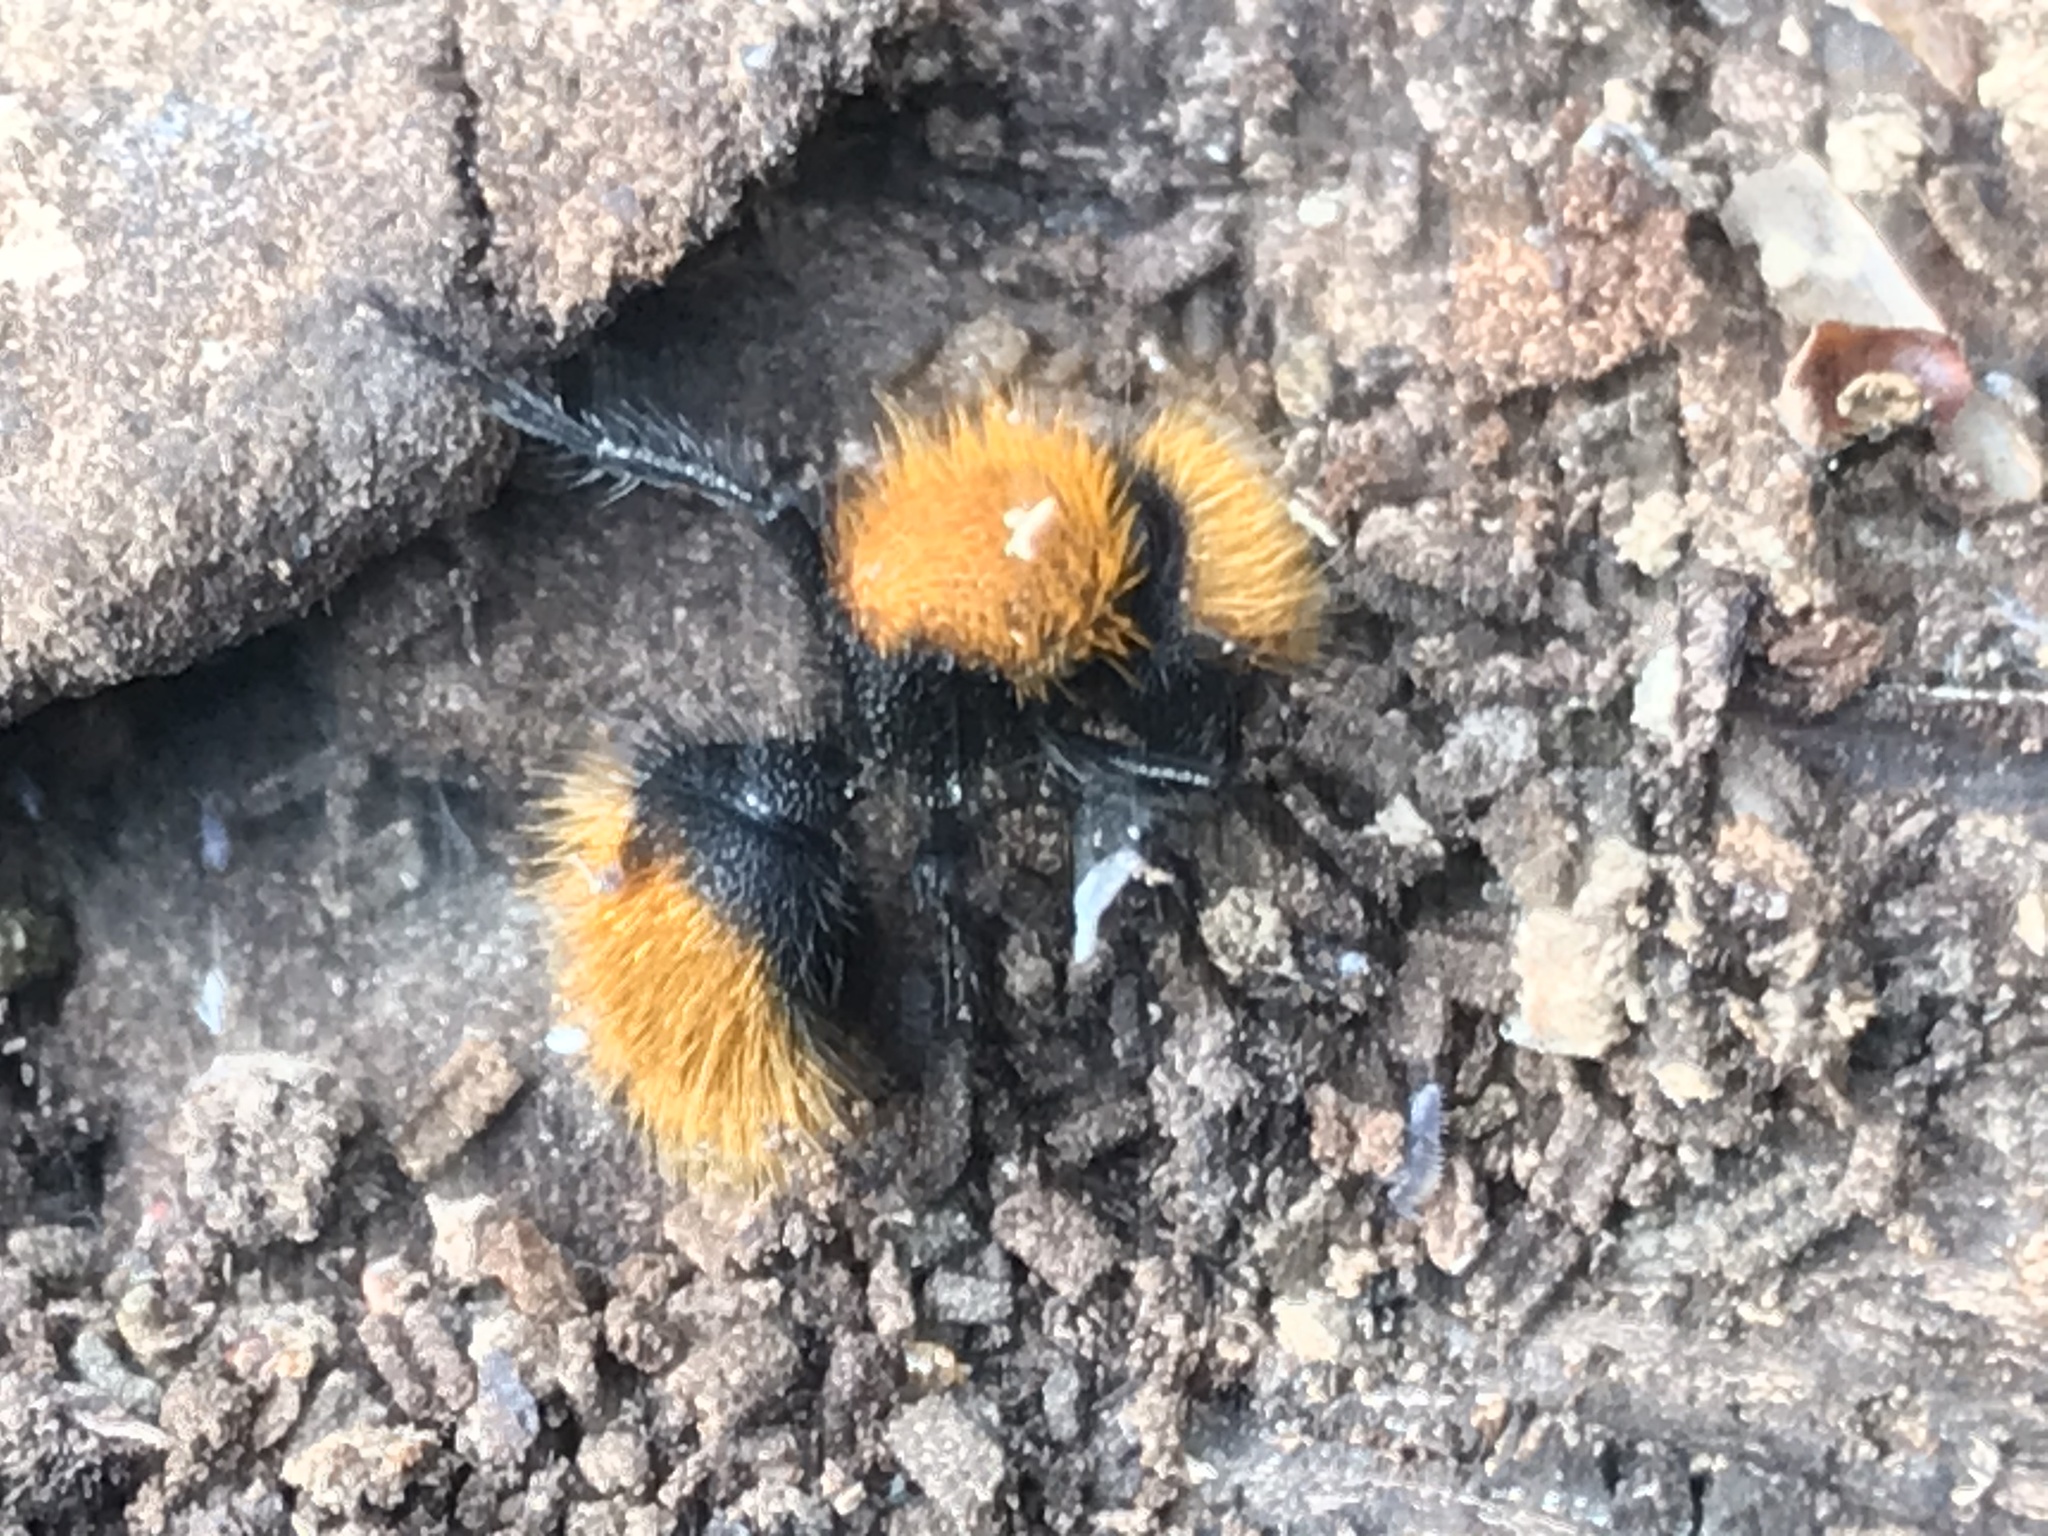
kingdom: Animalia
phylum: Arthropoda
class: Insecta
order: Hymenoptera
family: Mutillidae
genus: Dasymutilla
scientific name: Dasymutilla
